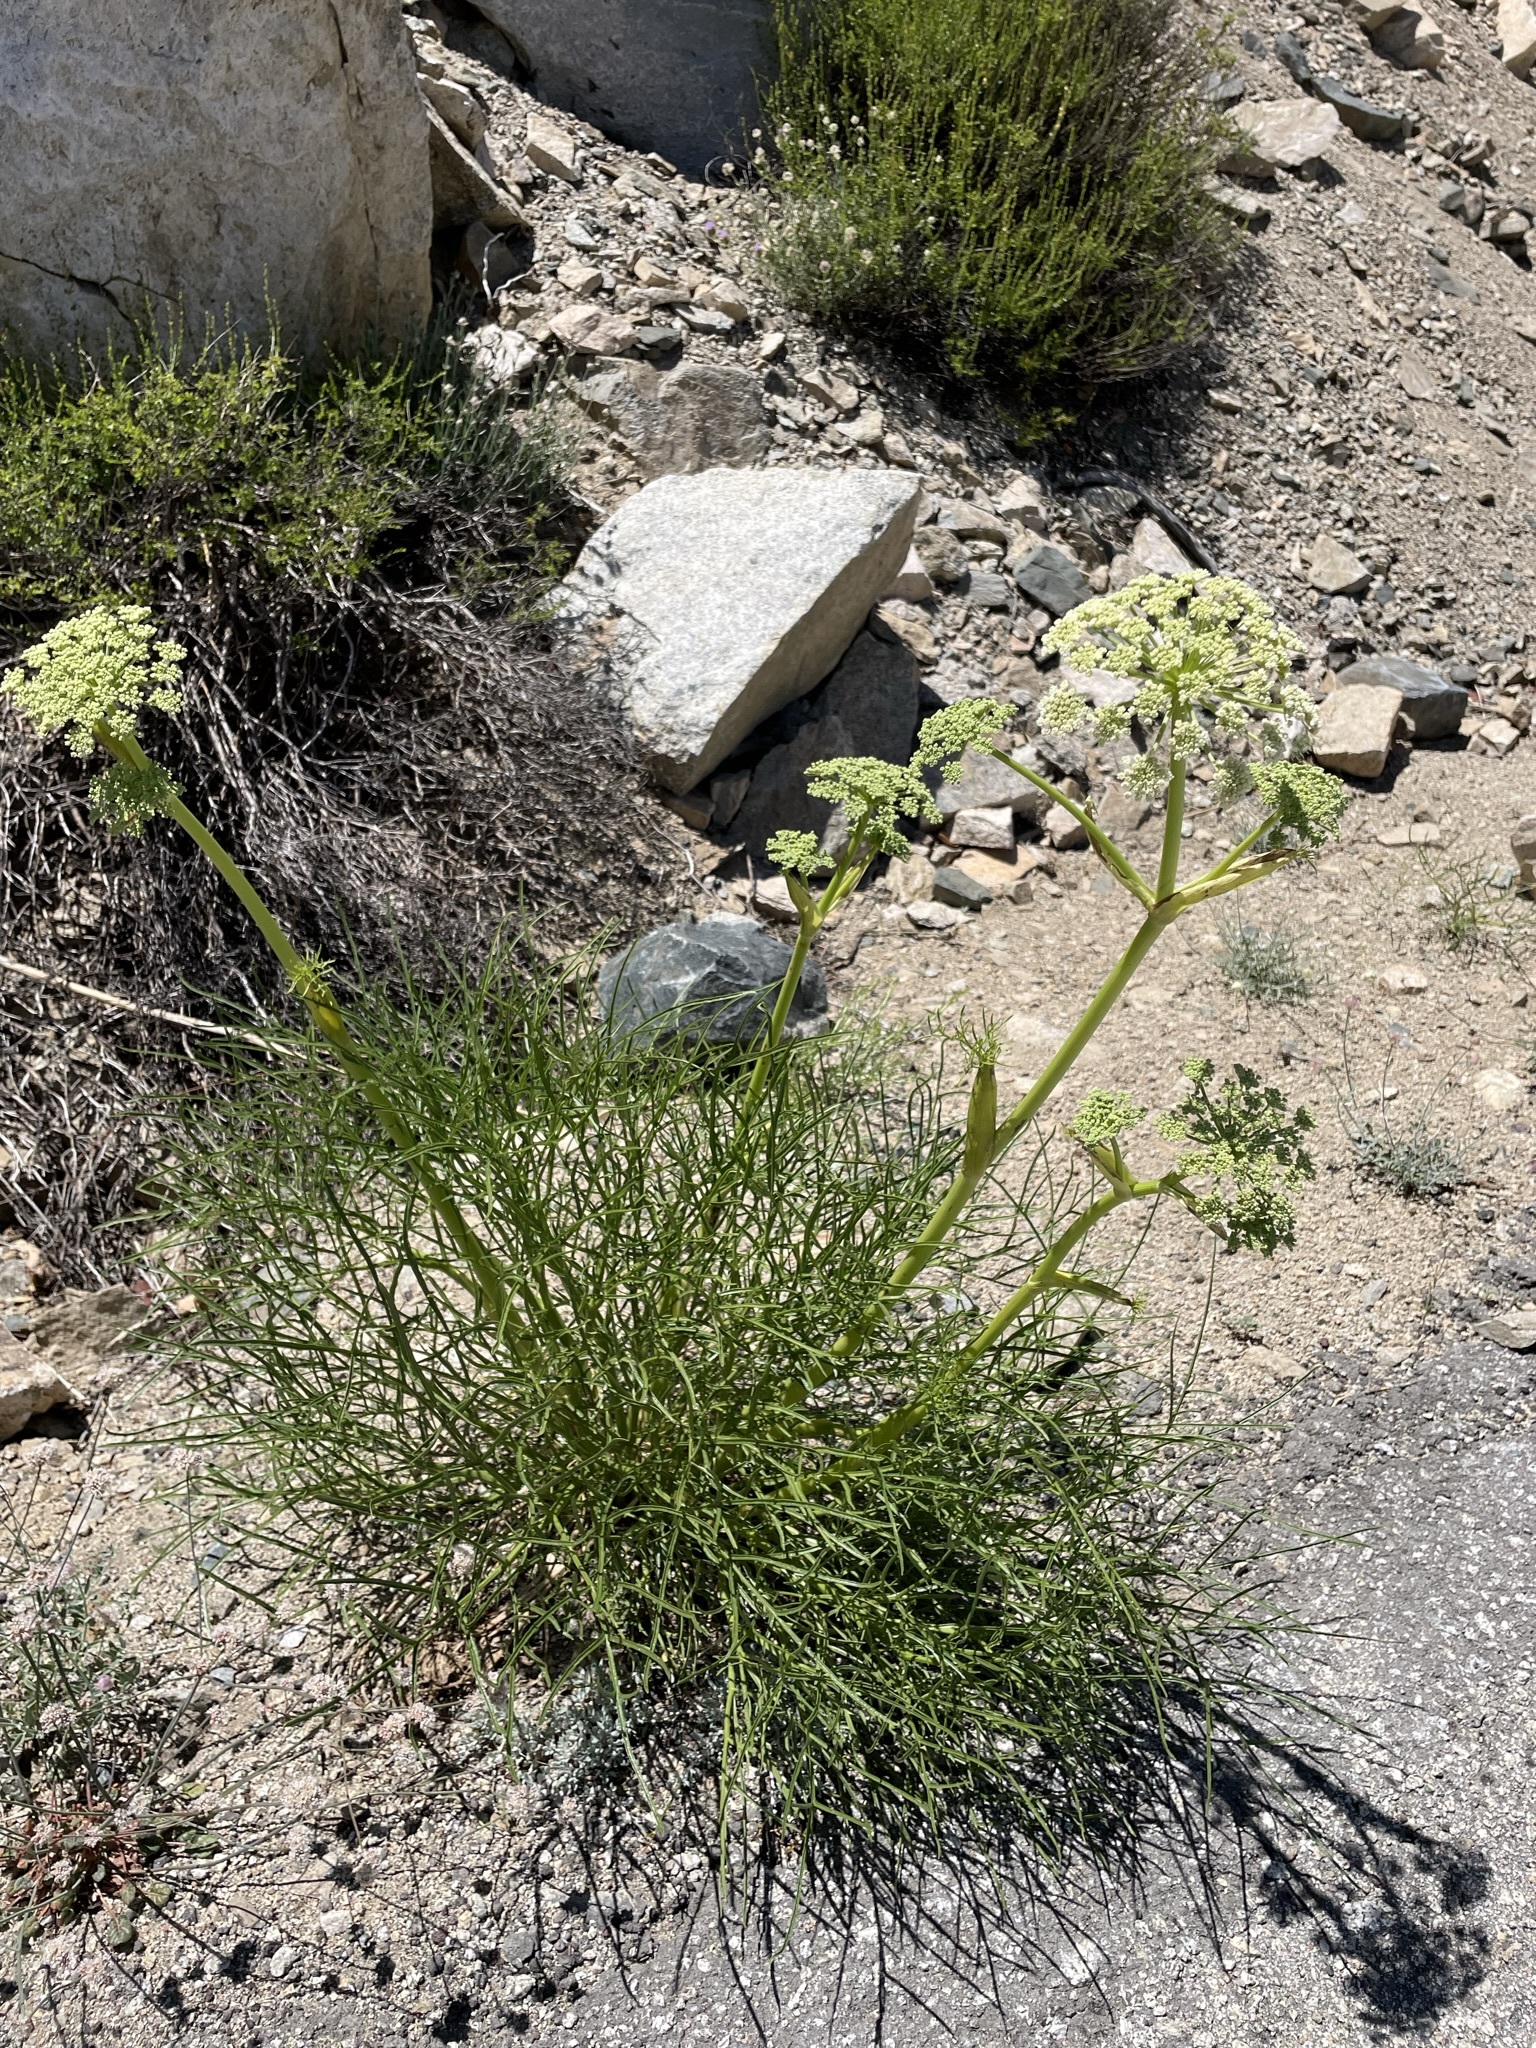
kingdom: Plantae
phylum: Tracheophyta
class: Magnoliopsida
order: Apiales
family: Apiaceae
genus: Angelica
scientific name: Angelica lineariloba
